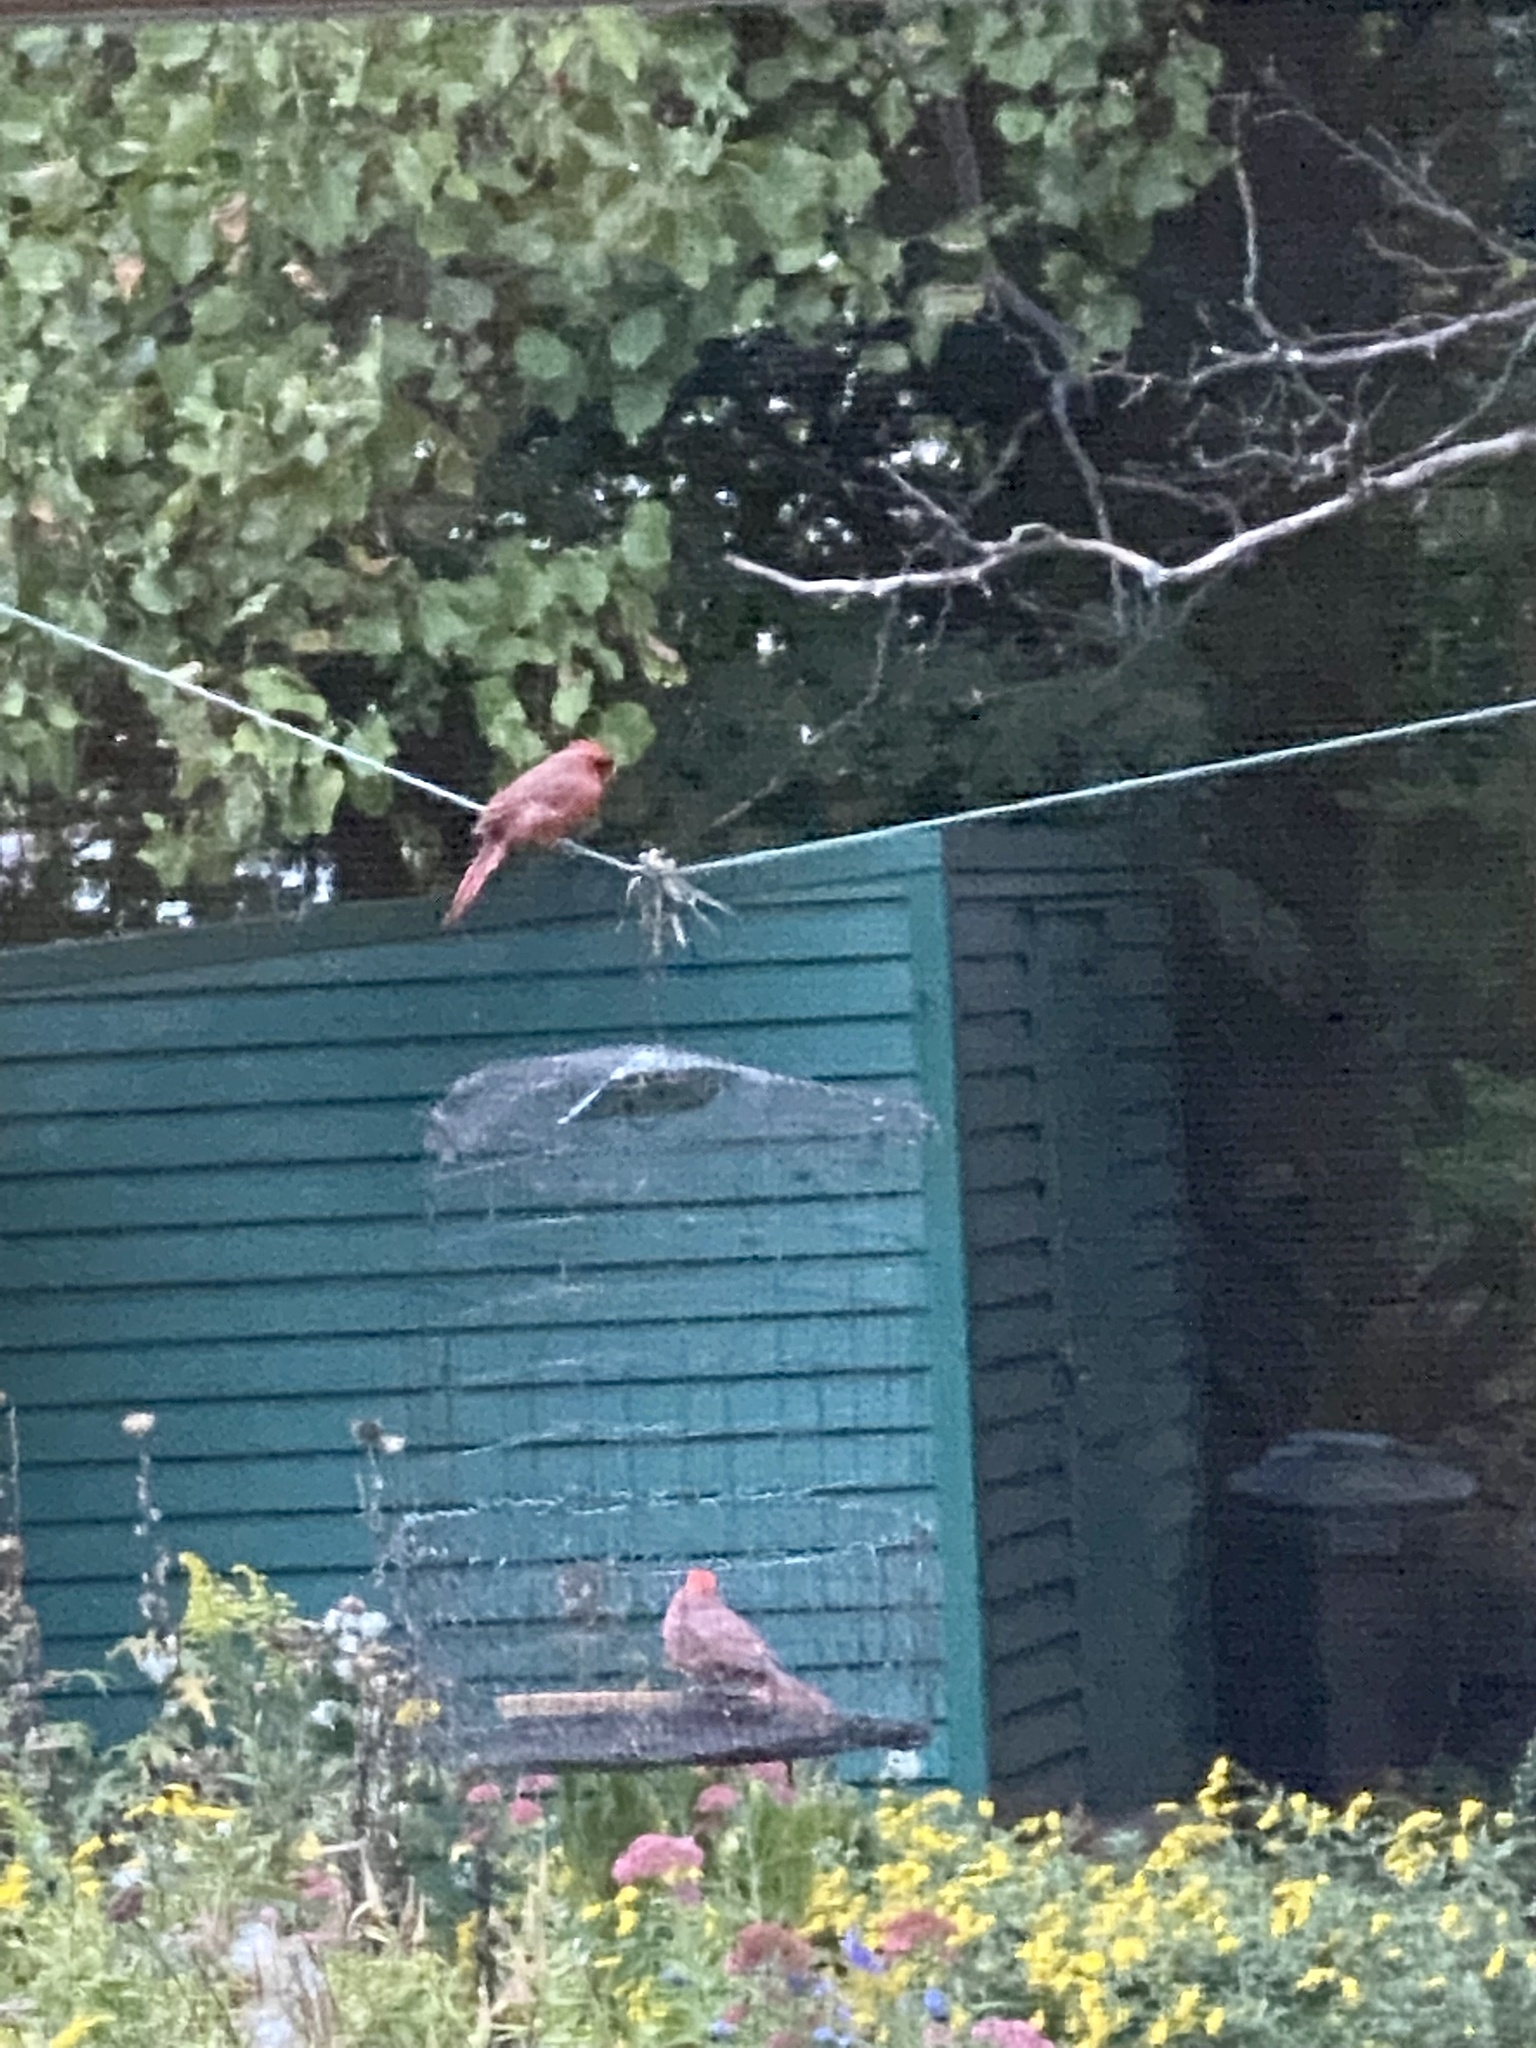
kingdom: Animalia
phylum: Chordata
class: Aves
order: Passeriformes
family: Cardinalidae
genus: Cardinalis
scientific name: Cardinalis cardinalis
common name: Northern cardinal
